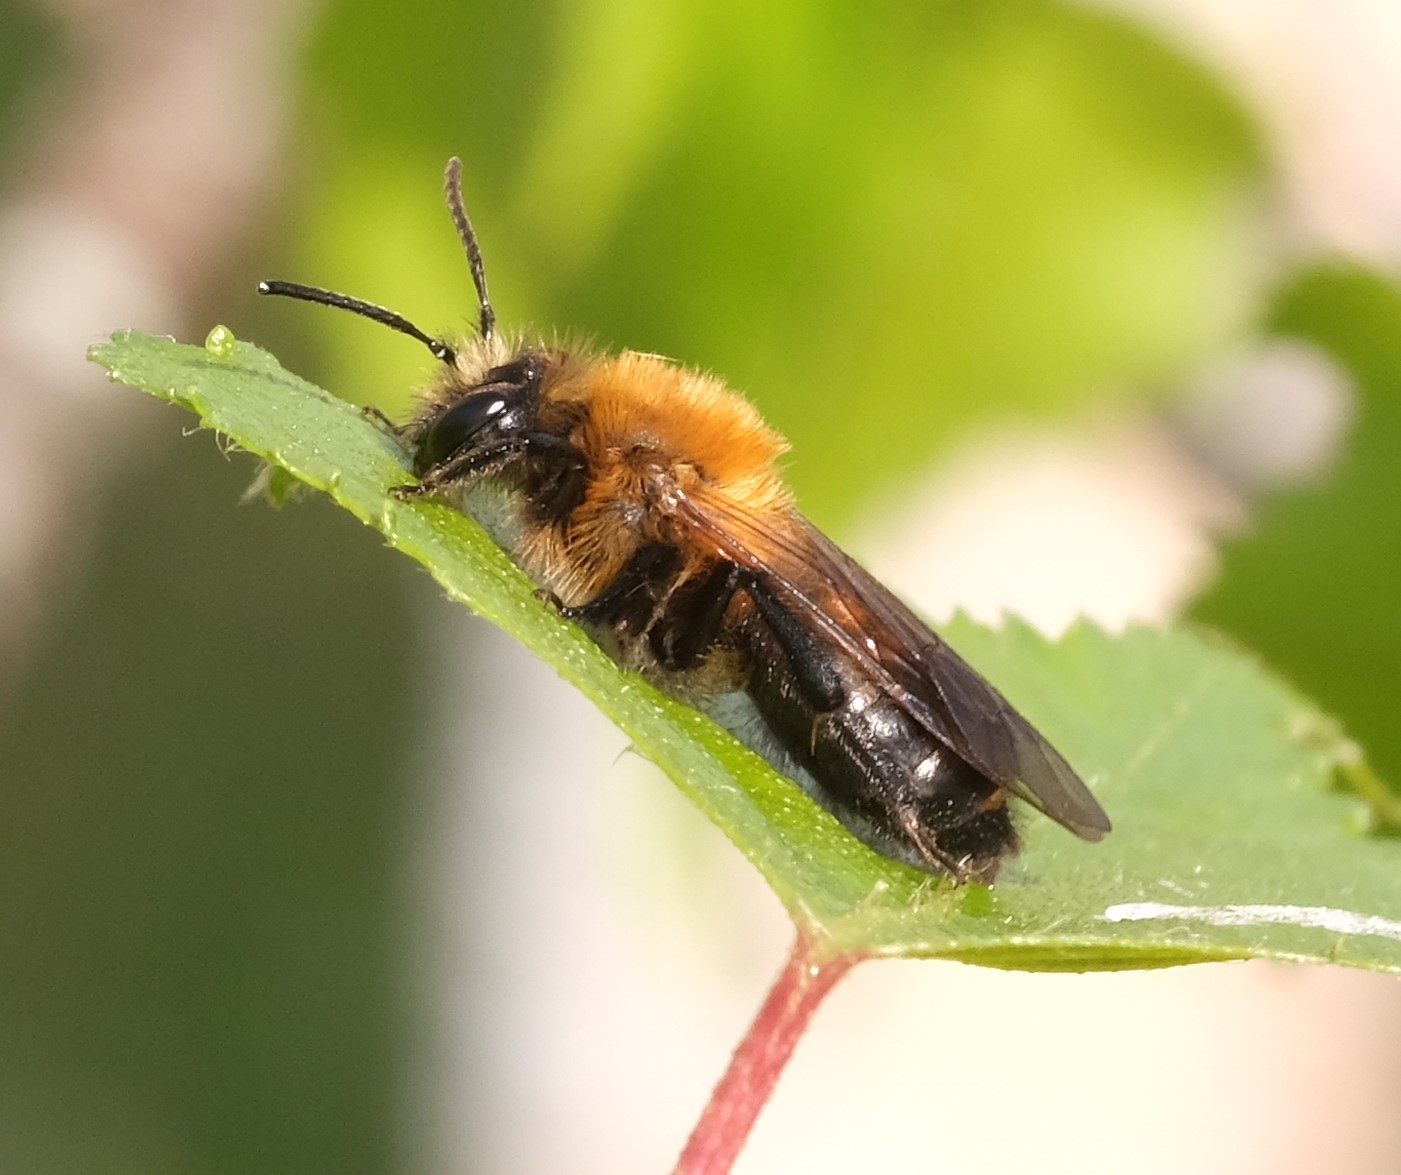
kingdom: Animalia
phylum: Arthropoda
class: Insecta
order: Hymenoptera
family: Andrenidae
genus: Andrena
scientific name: Andrena milwaukeensis
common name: Milwaukee mining bee
